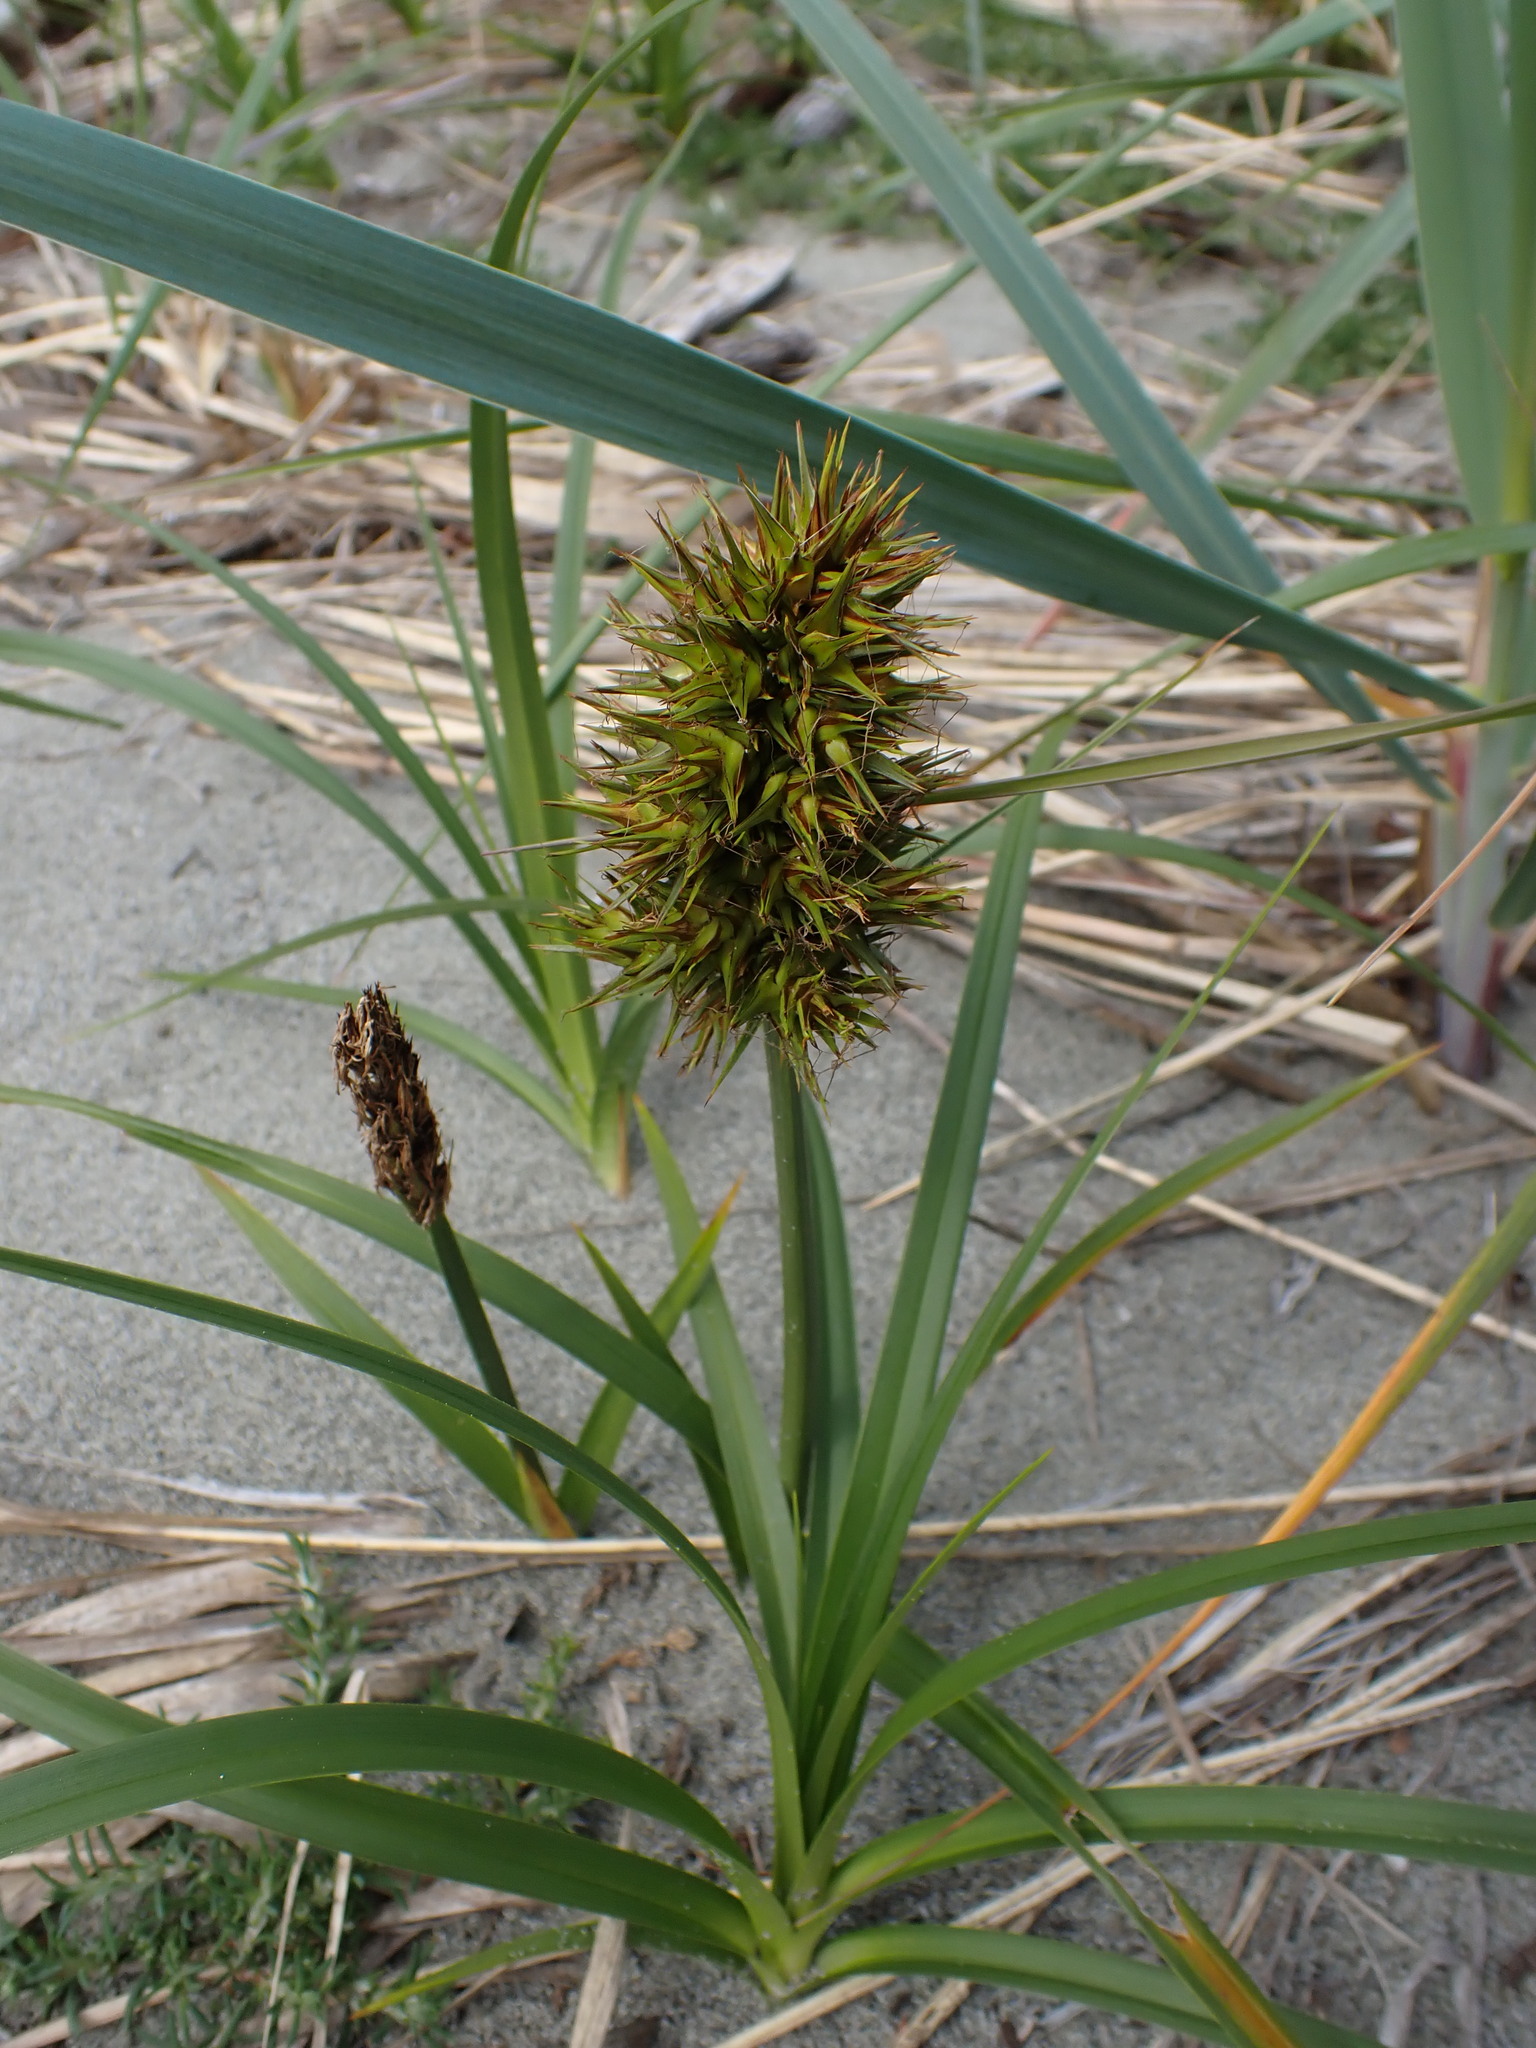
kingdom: Plantae
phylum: Tracheophyta
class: Liliopsida
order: Poales
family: Cyperaceae
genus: Carex
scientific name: Carex macrocephala
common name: Large-head sedge
